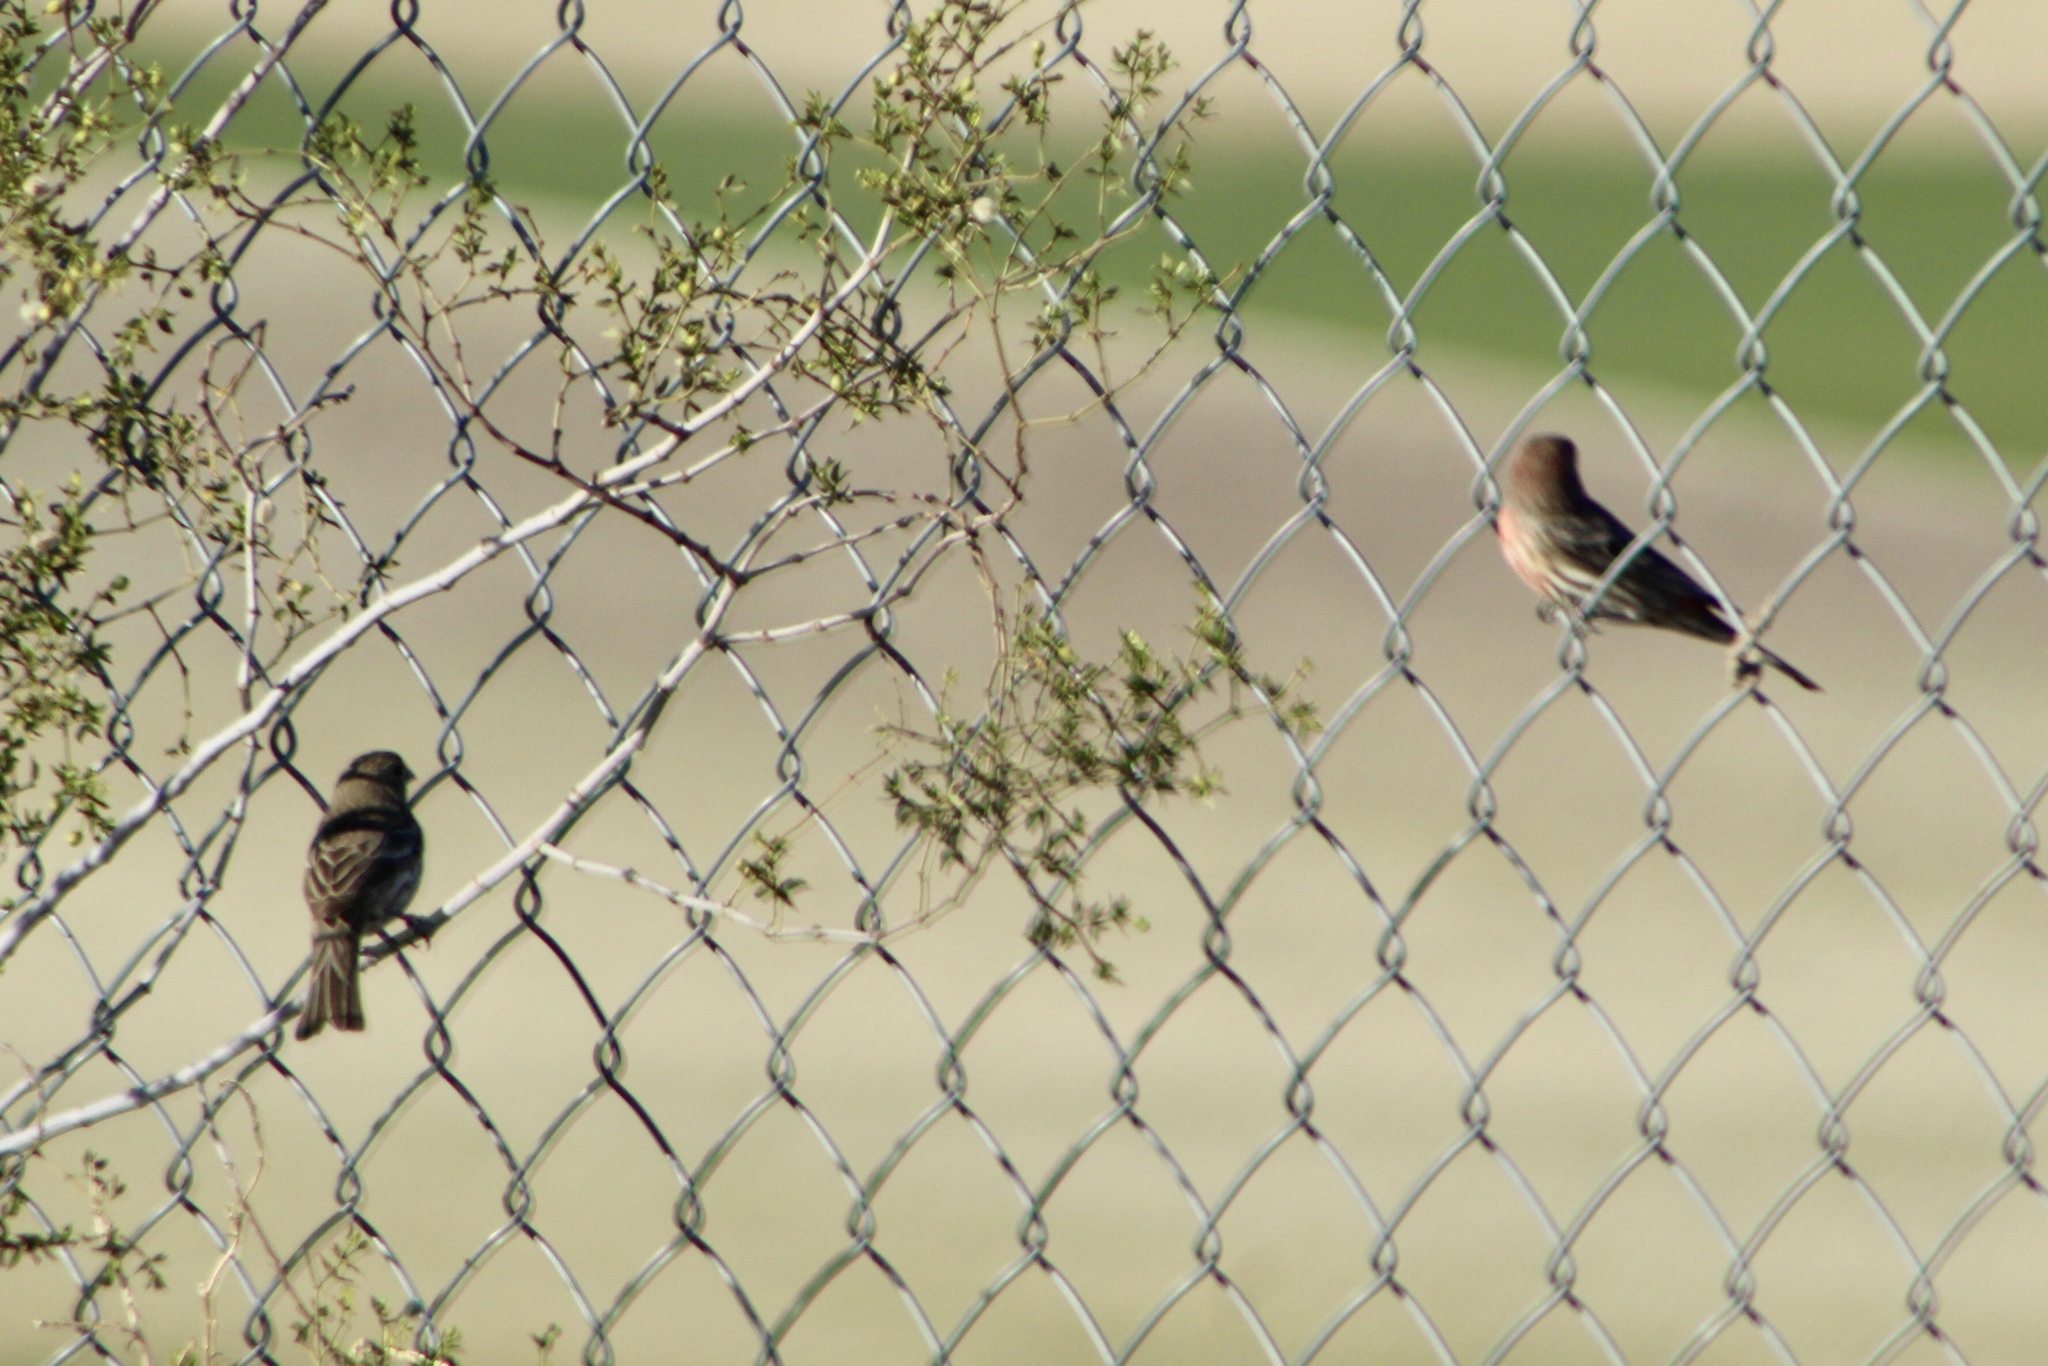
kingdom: Animalia
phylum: Chordata
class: Aves
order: Passeriformes
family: Fringillidae
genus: Haemorhous
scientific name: Haemorhous mexicanus
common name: House finch
